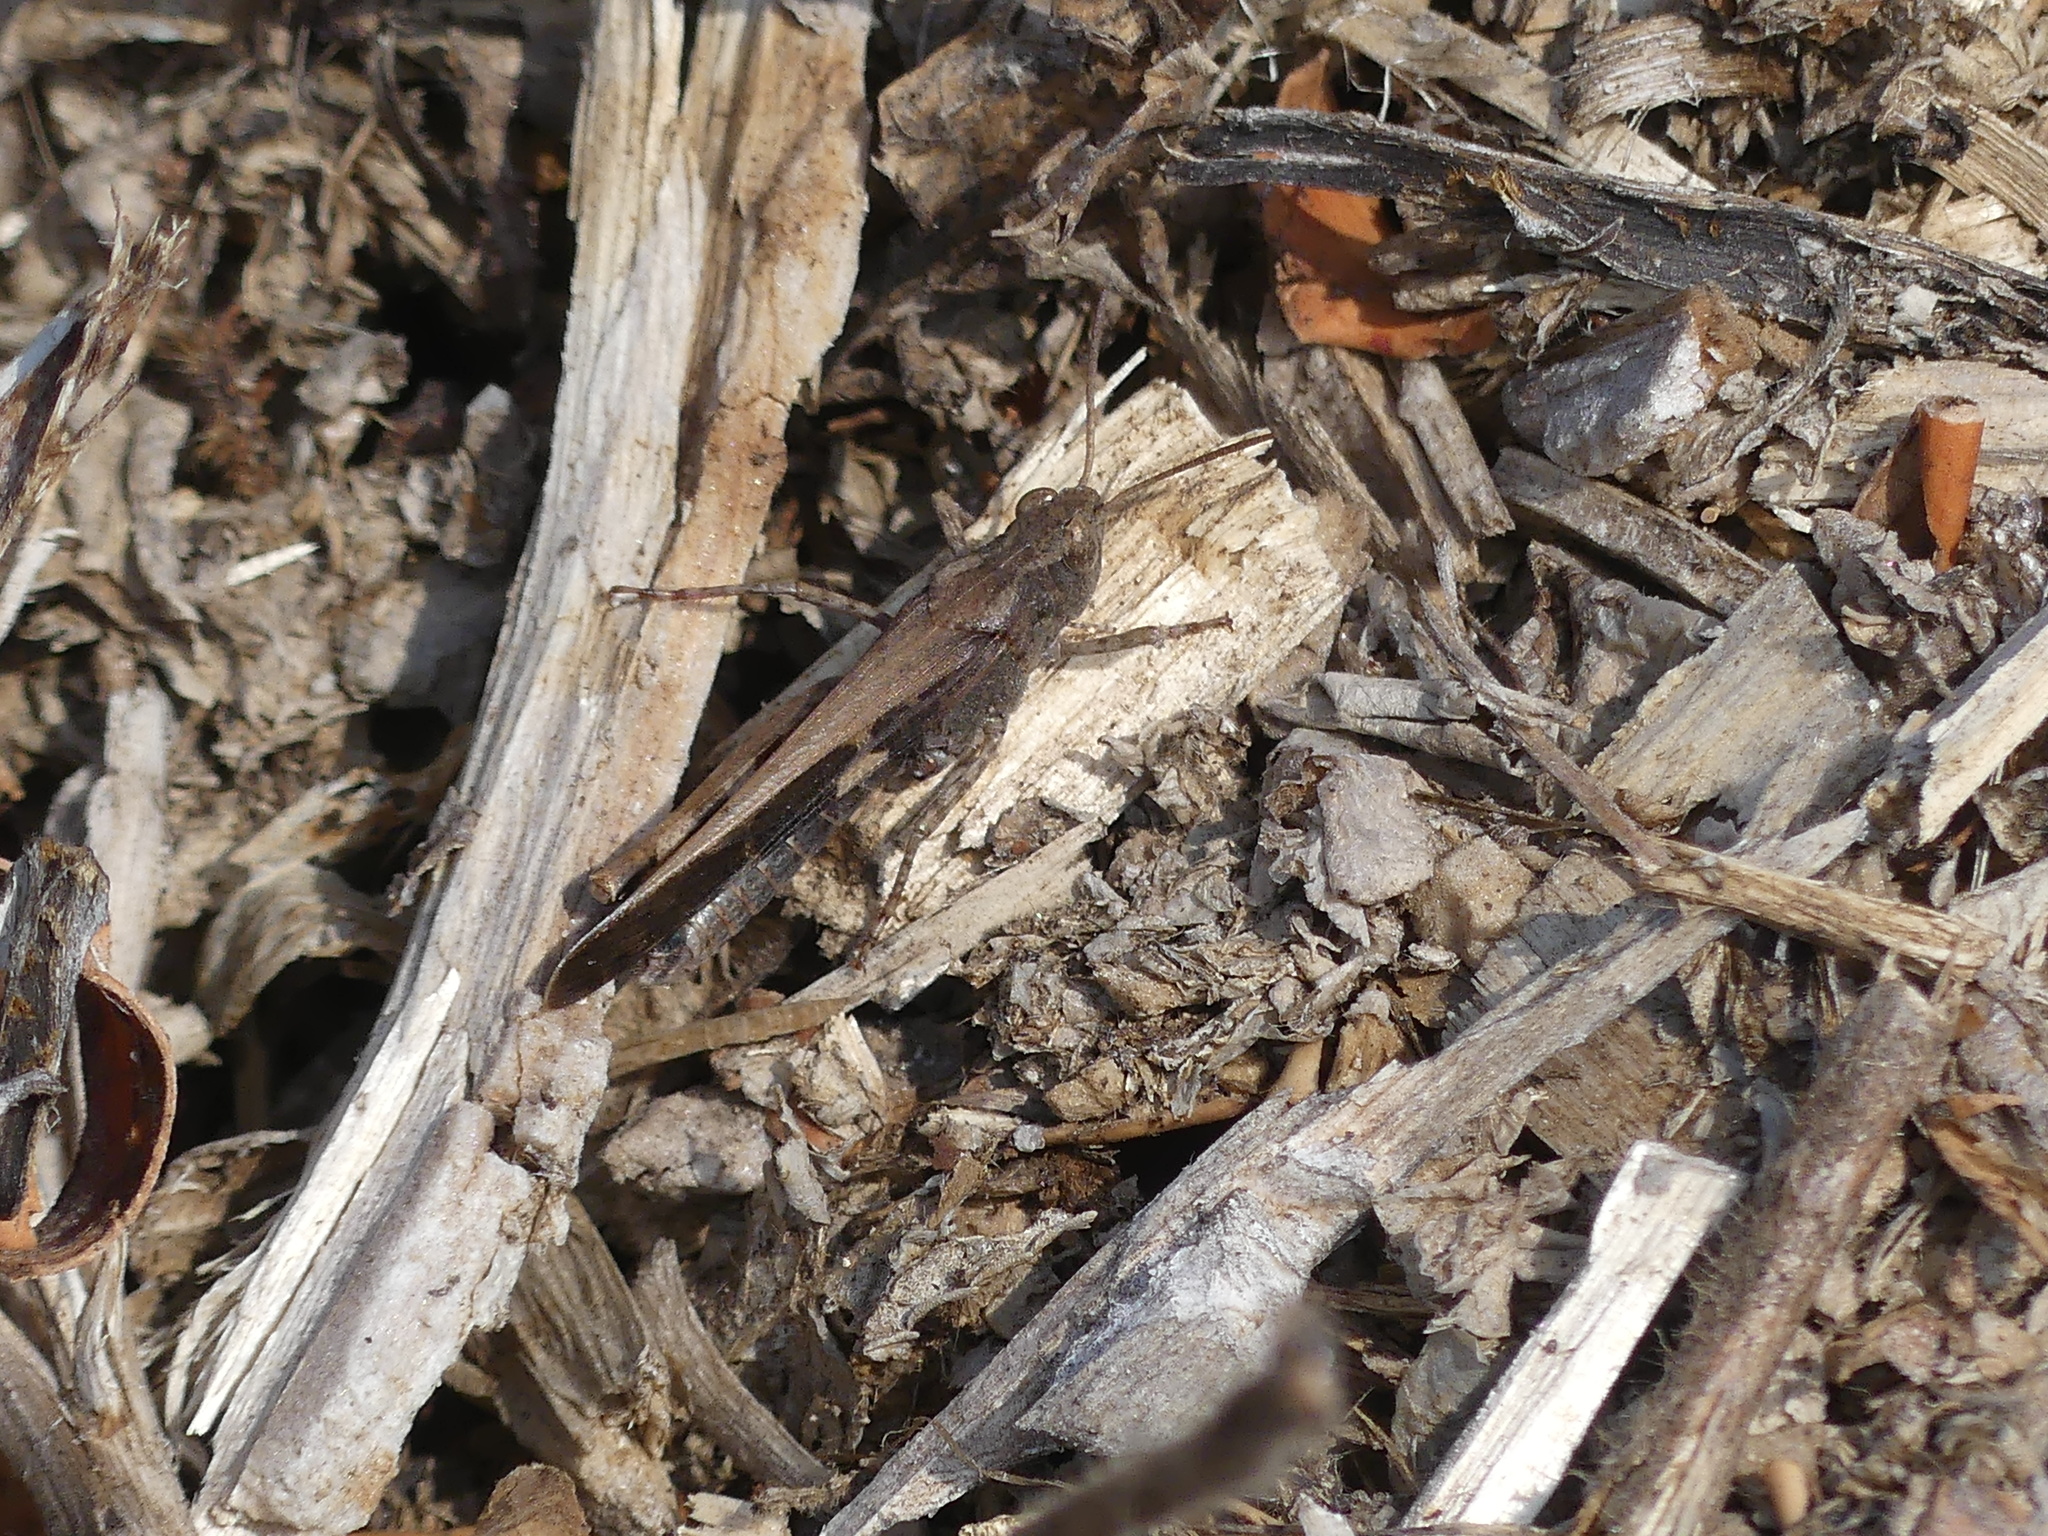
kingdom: Animalia
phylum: Arthropoda
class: Insecta
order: Orthoptera
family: Acrididae
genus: Aiolopus
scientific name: Aiolopus strepens
